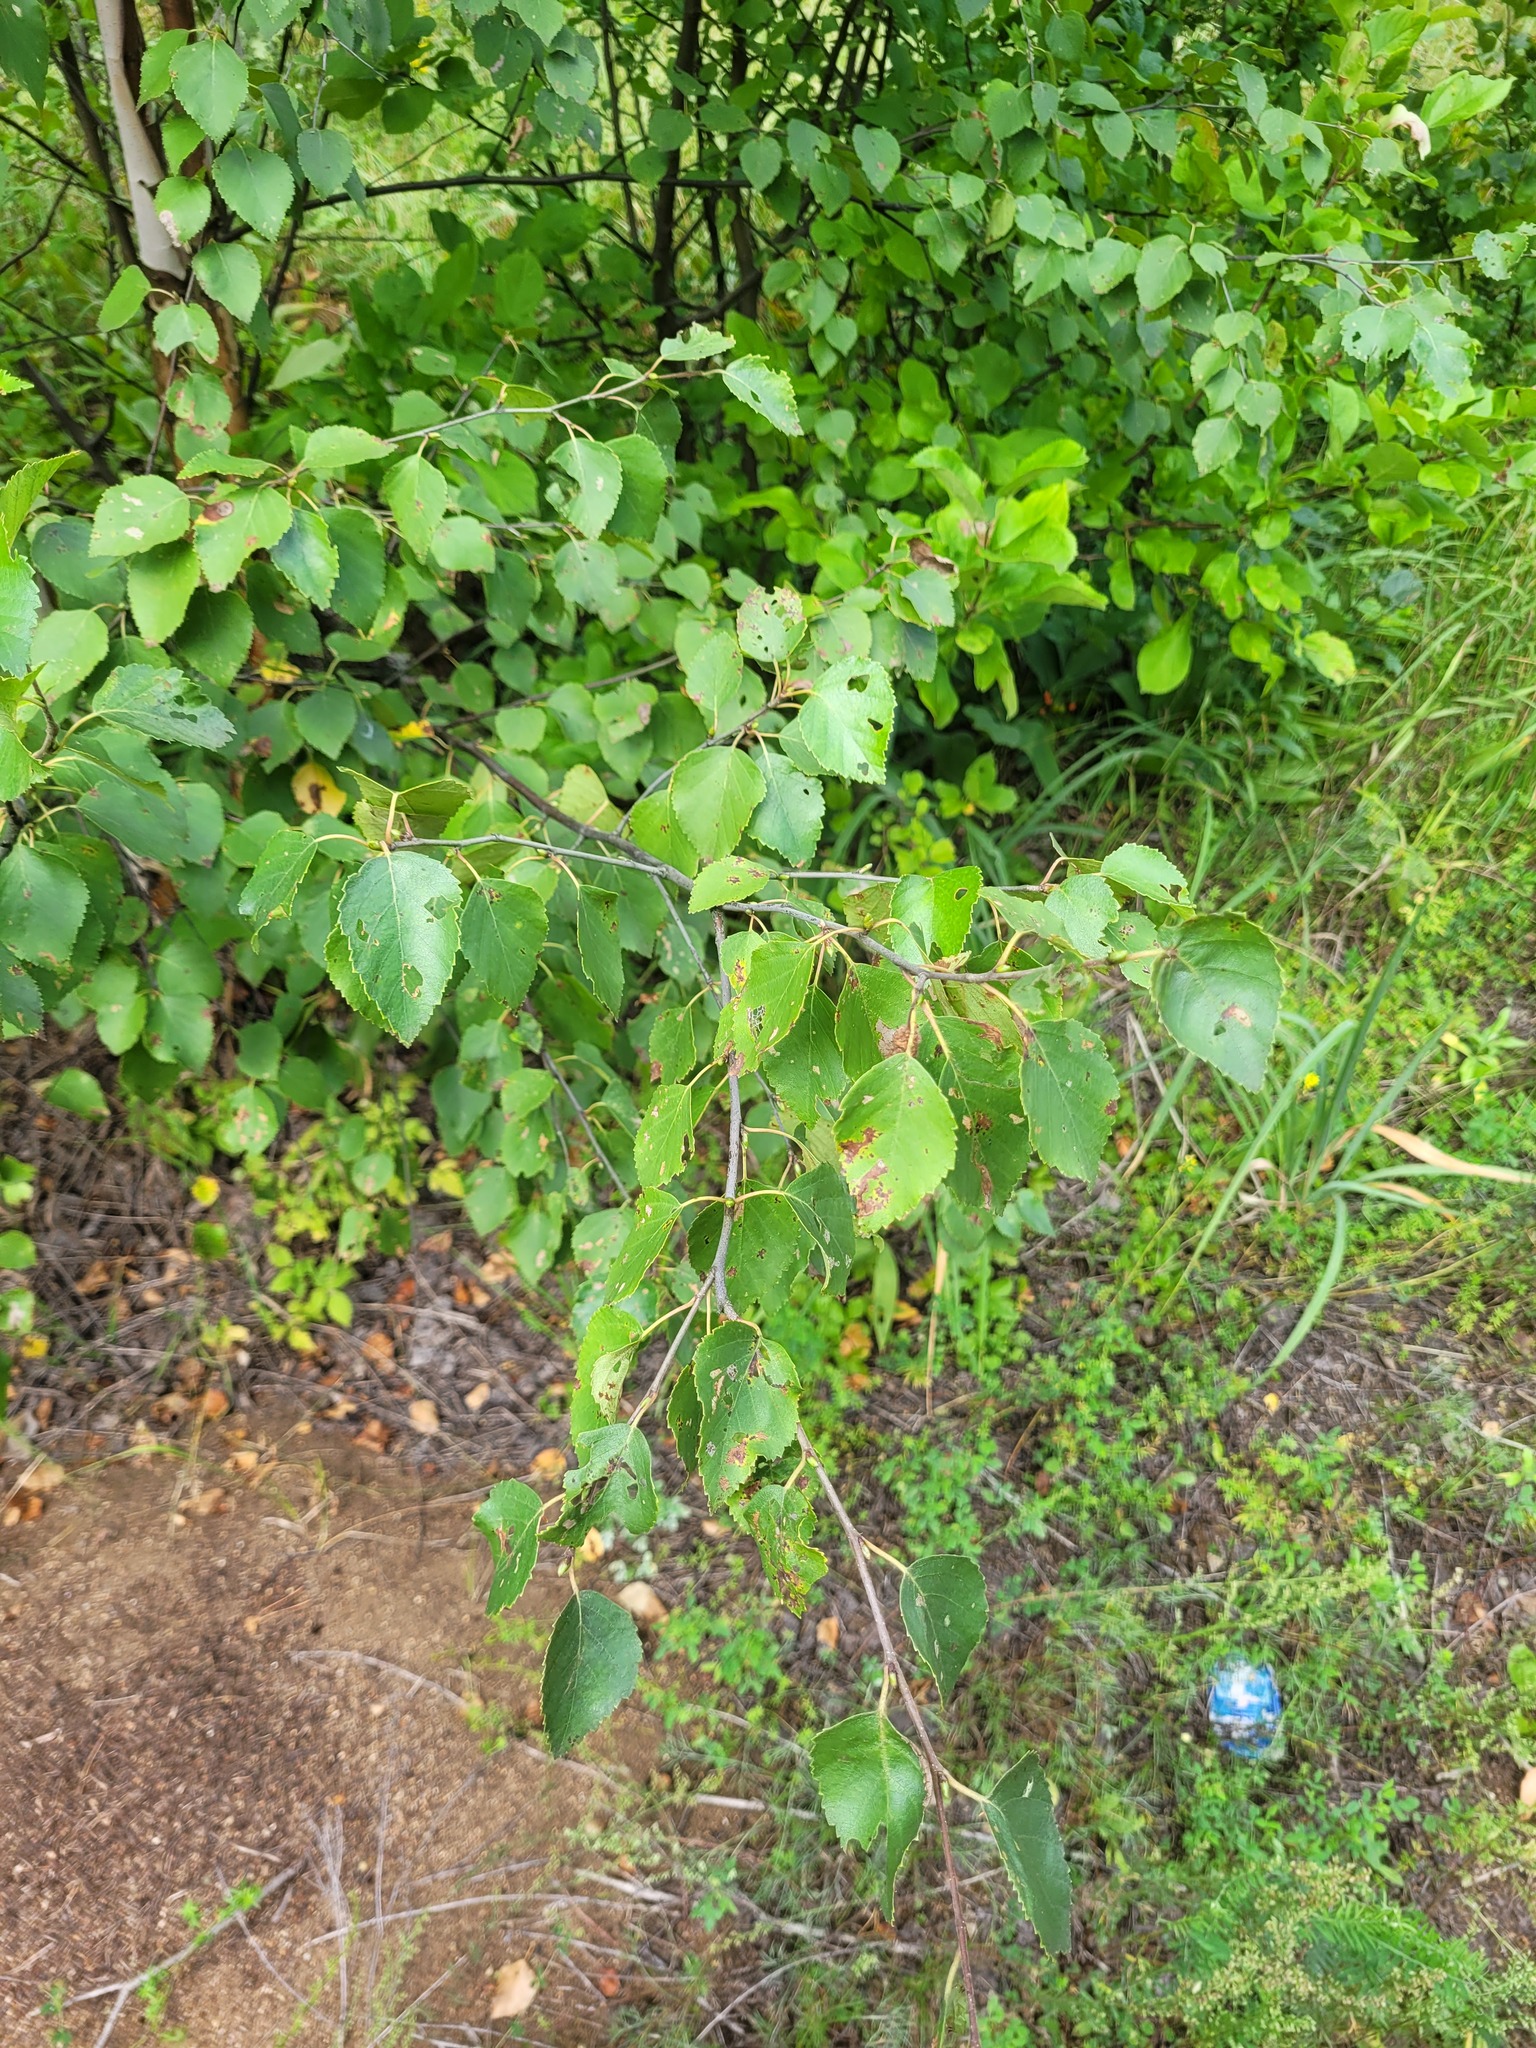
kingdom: Plantae
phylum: Tracheophyta
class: Magnoliopsida
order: Fagales
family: Betulaceae
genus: Betula
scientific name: Betula pubescens
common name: Downy birch
